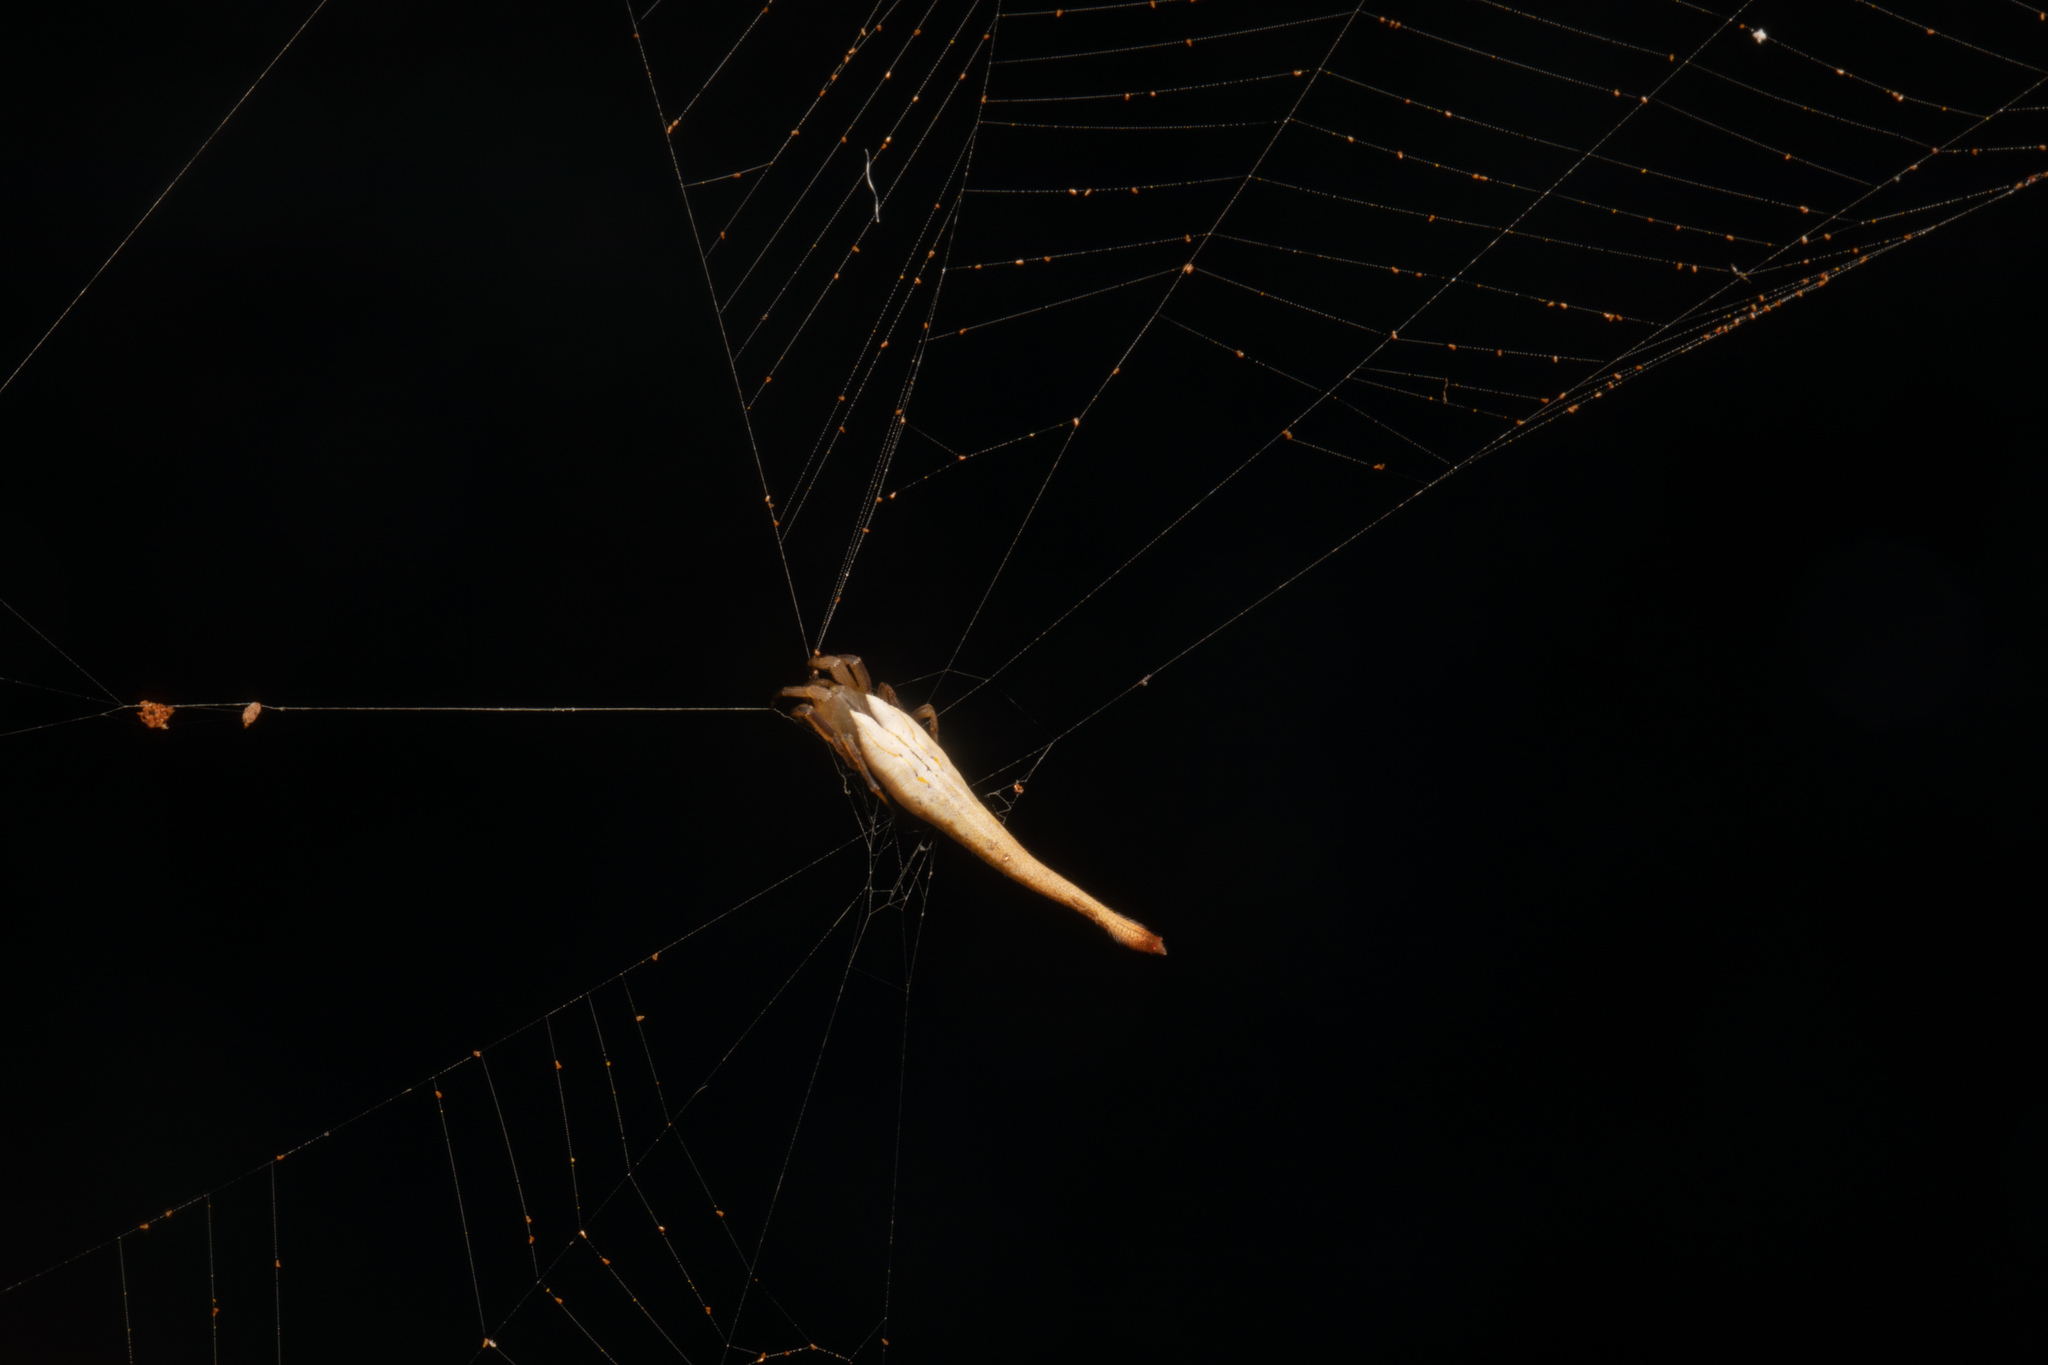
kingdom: Animalia
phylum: Arthropoda
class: Arachnida
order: Araneae
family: Araneidae
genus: Arachnura
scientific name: Arachnura feredayi
